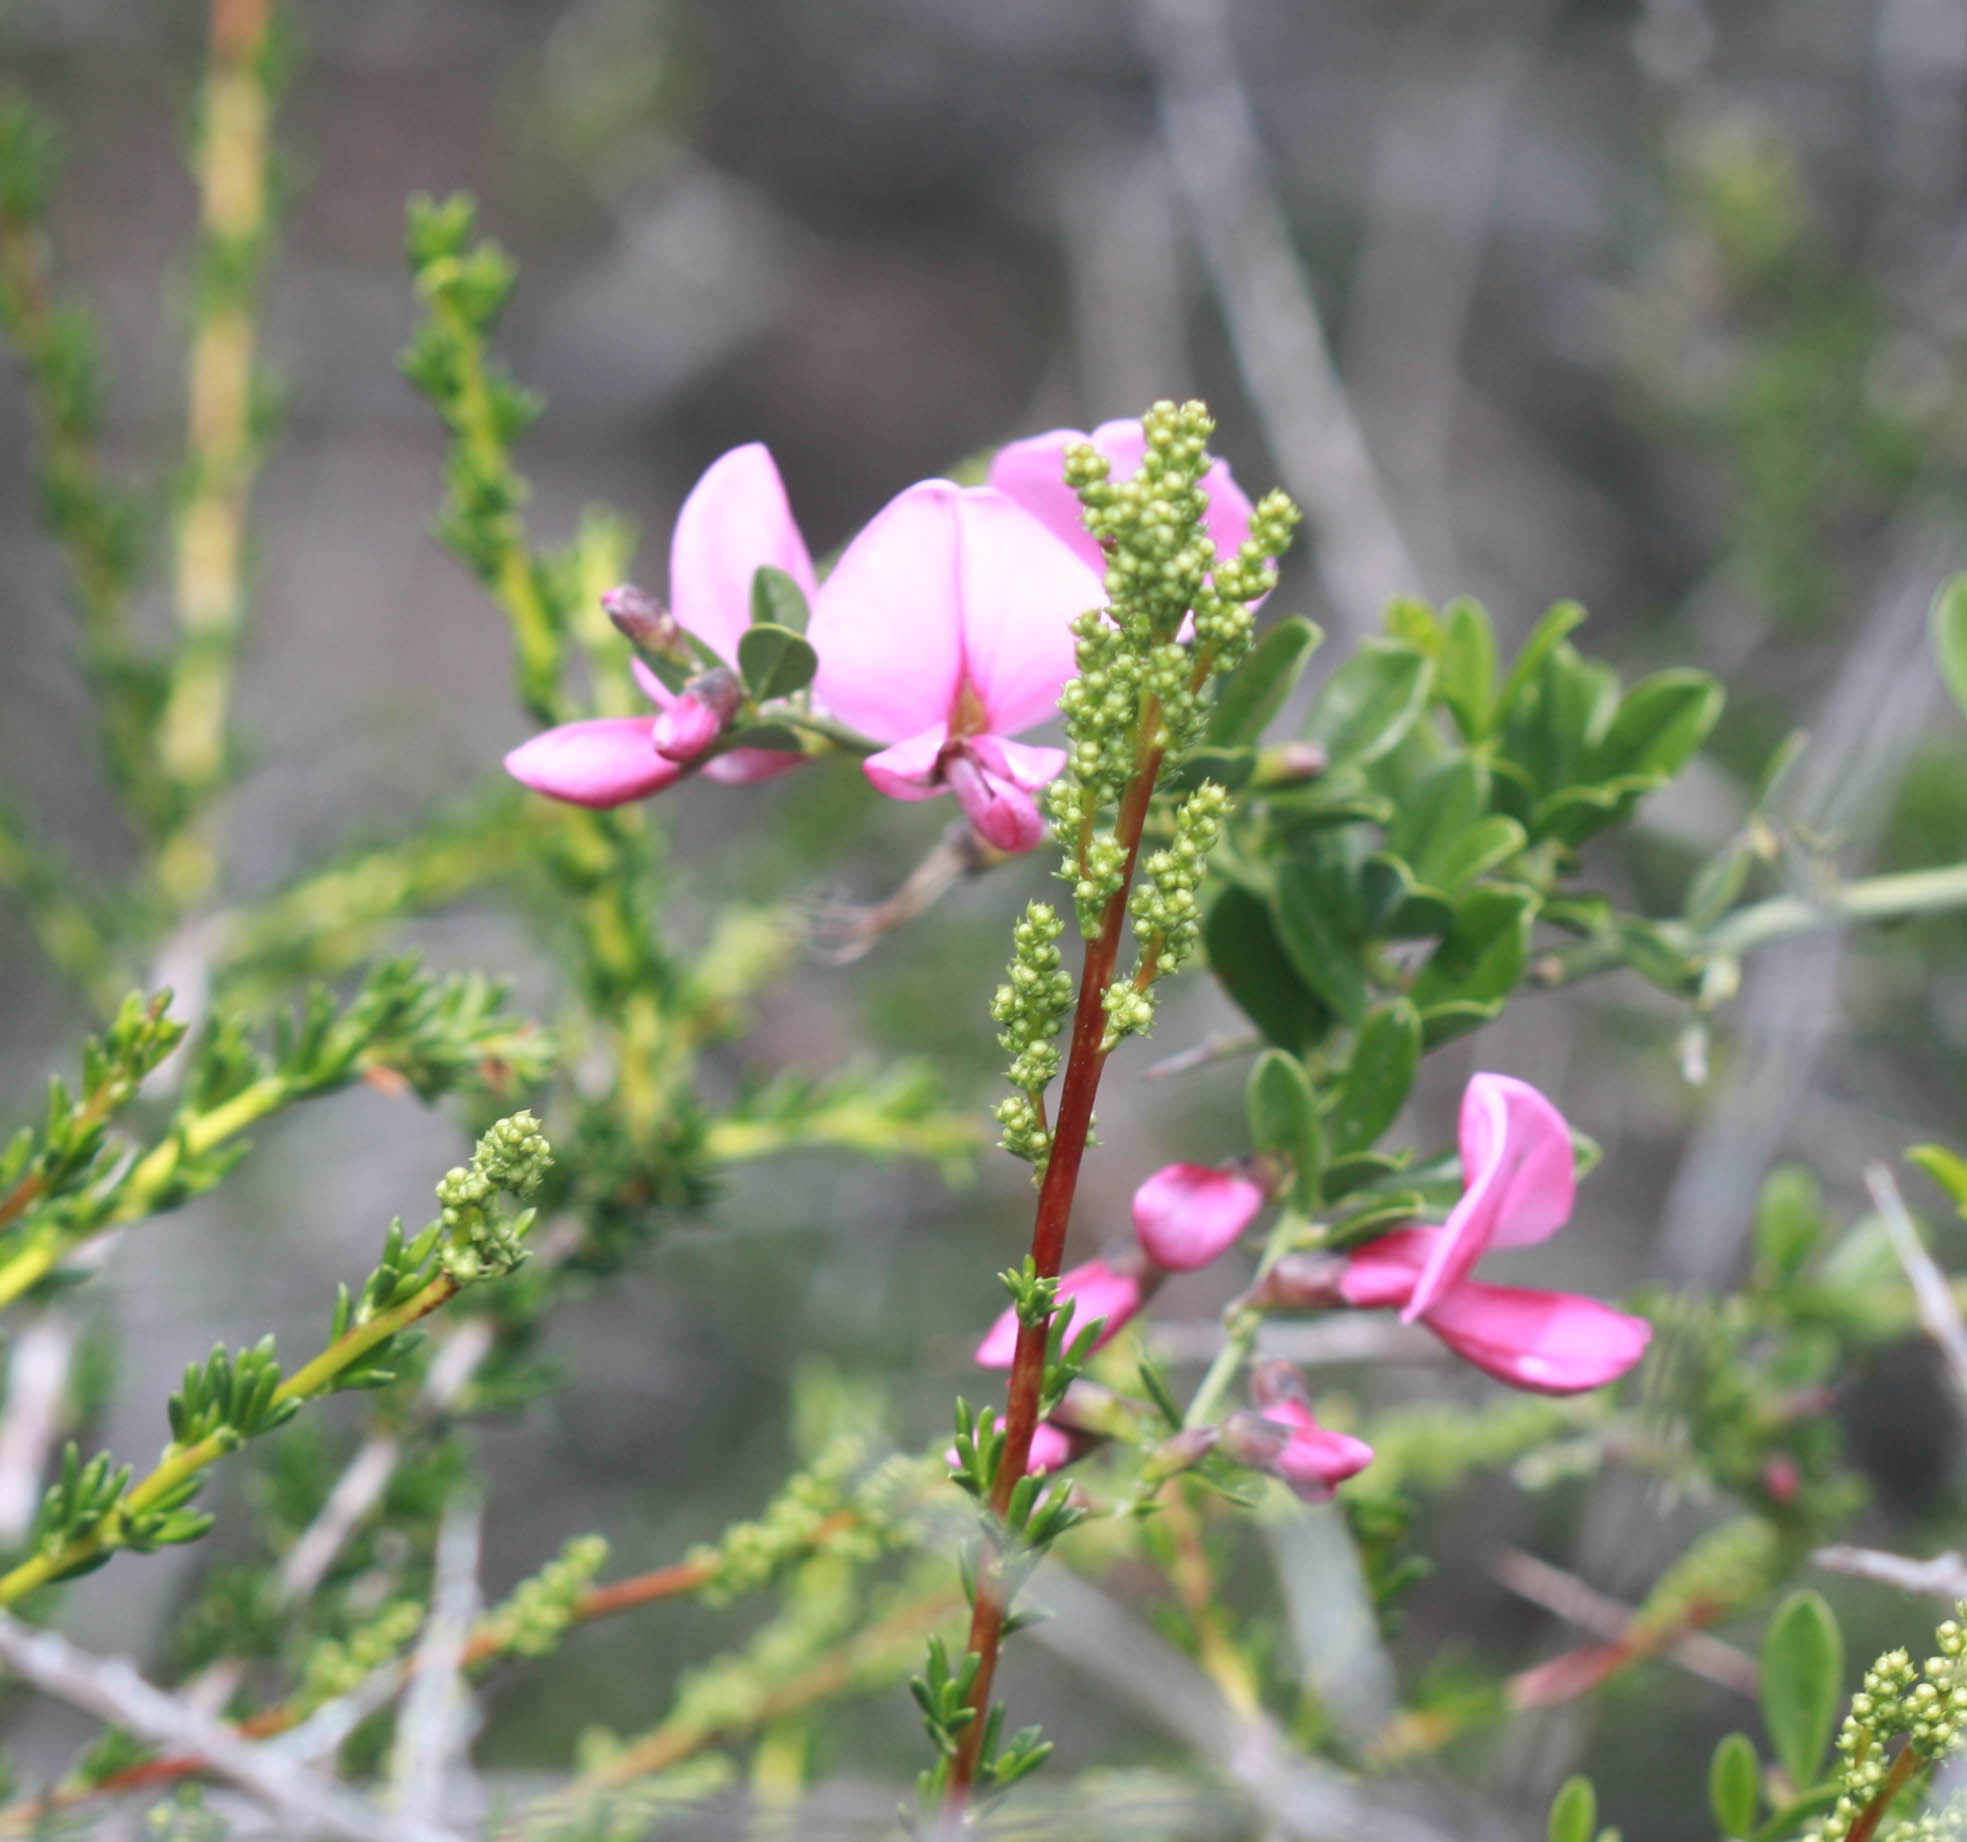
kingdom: Plantae
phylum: Tracheophyta
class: Magnoliopsida
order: Fabales
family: Fabaceae
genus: Pickeringia
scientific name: Pickeringia montana
